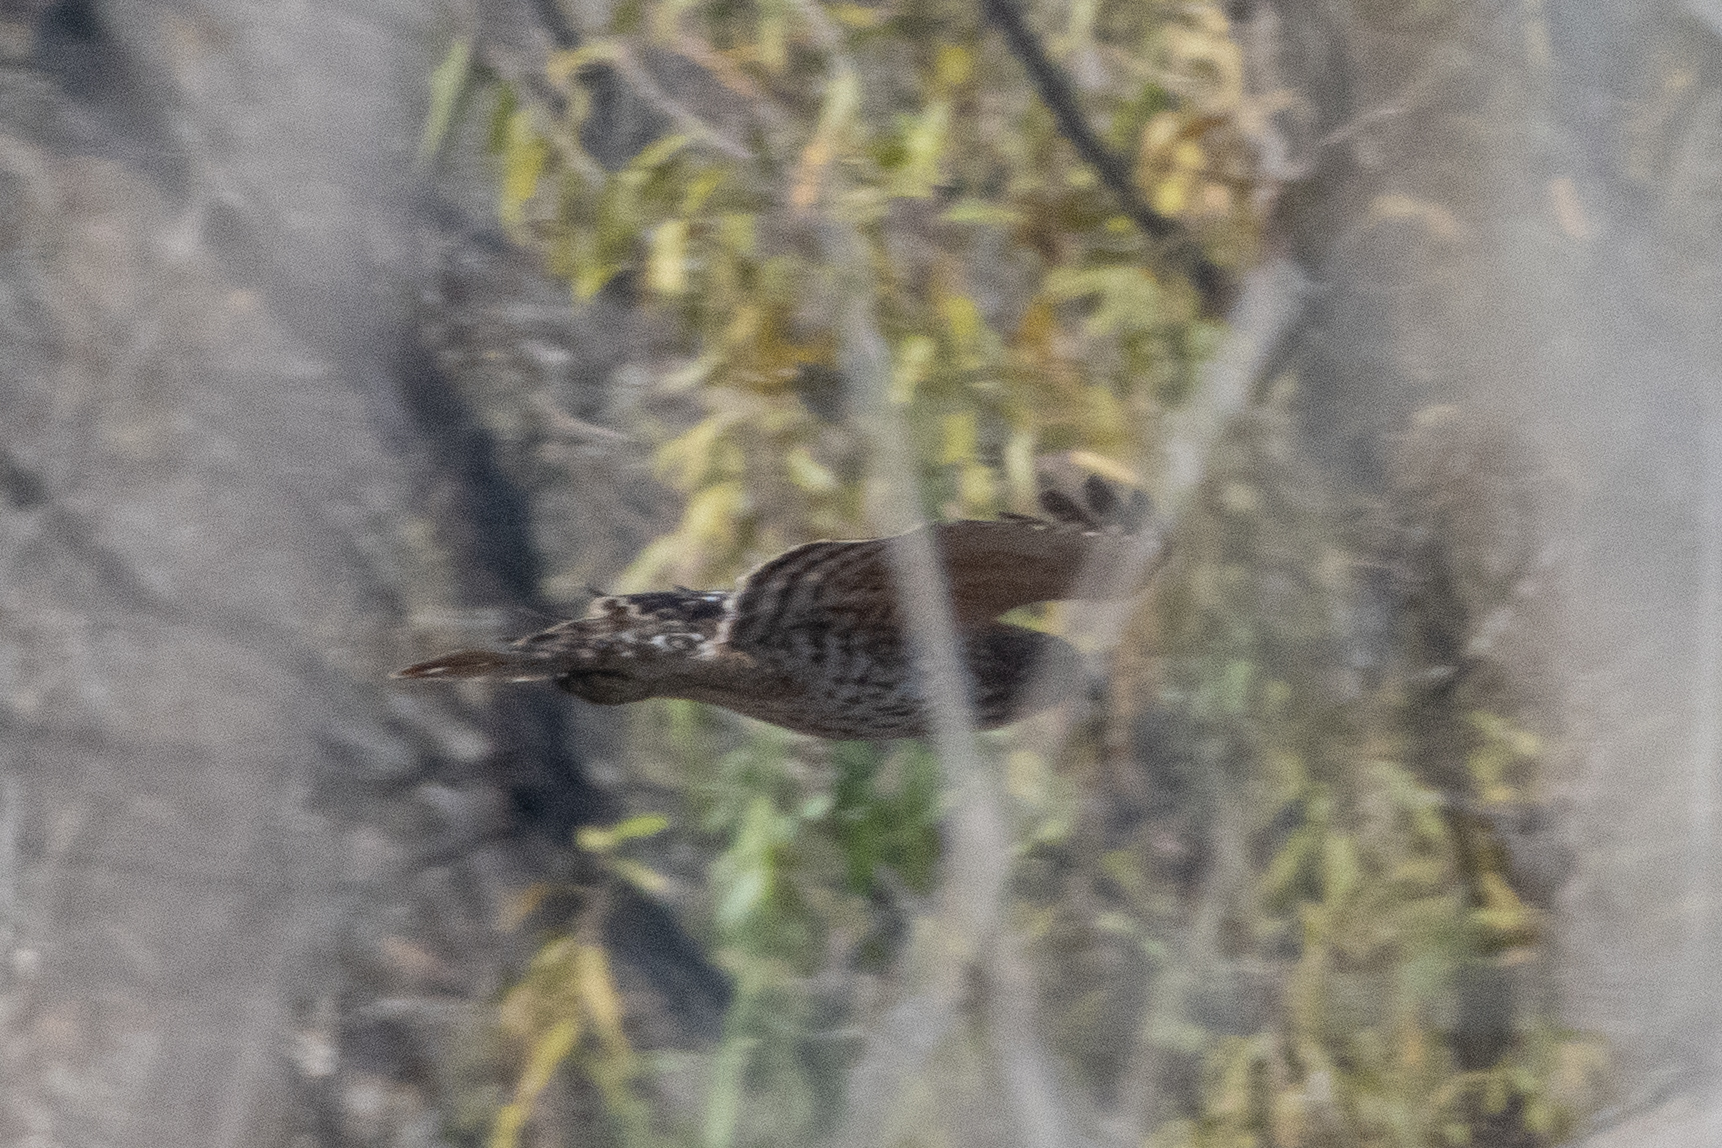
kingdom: Animalia
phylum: Chordata
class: Aves
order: Accipitriformes
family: Accipitridae
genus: Buteo
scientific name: Buteo lineatus
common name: Red-shouldered hawk
